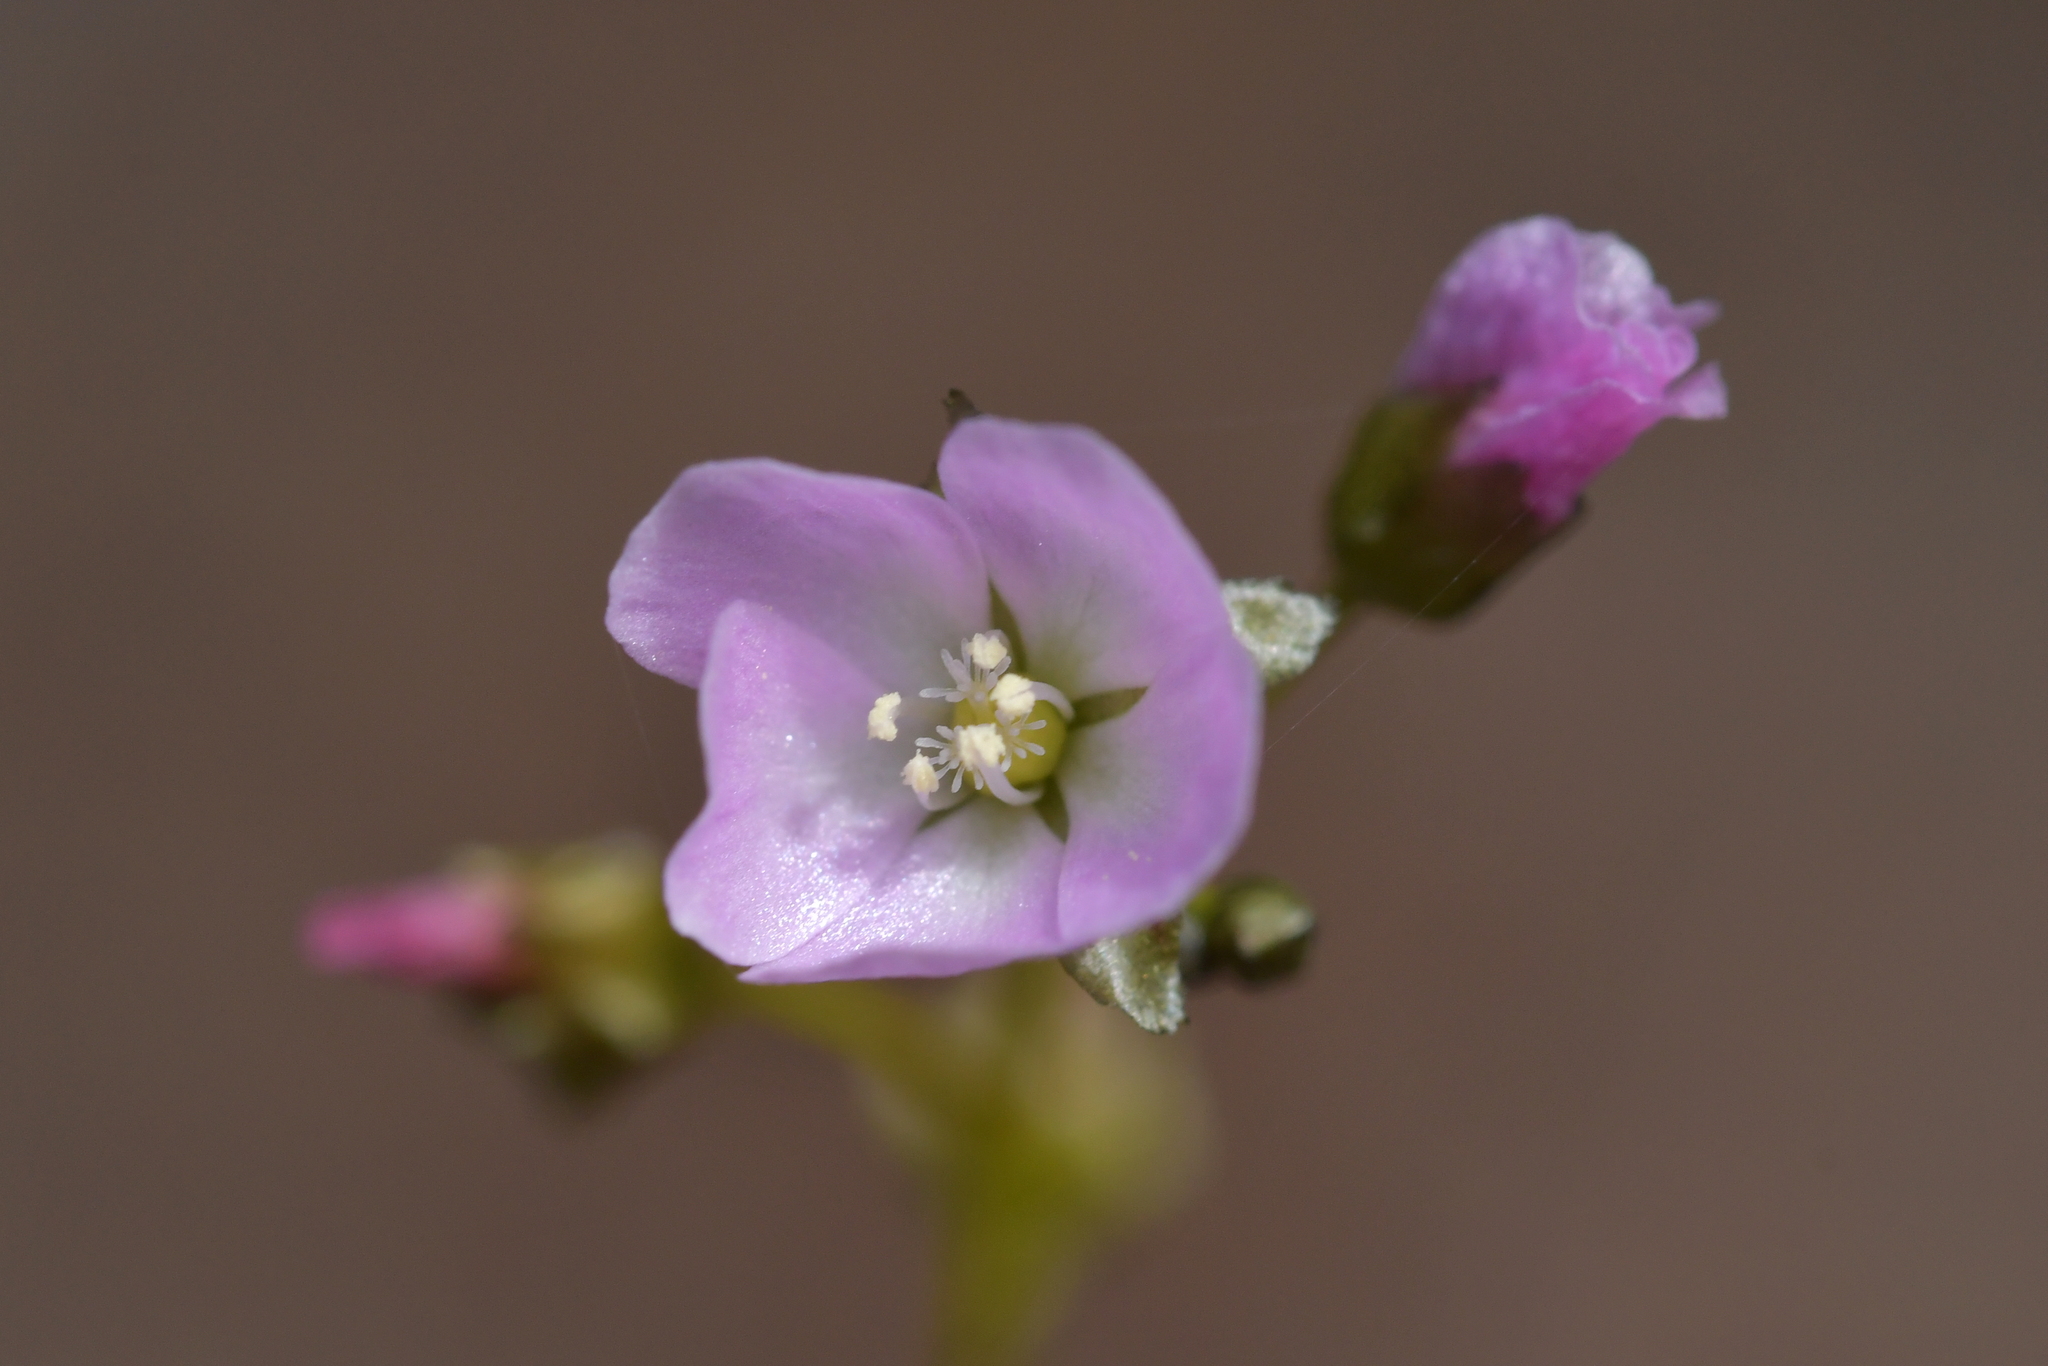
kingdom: Plantae
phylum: Tracheophyta
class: Magnoliopsida
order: Caryophyllales
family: Droseraceae
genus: Drosera
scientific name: Drosera peltata
